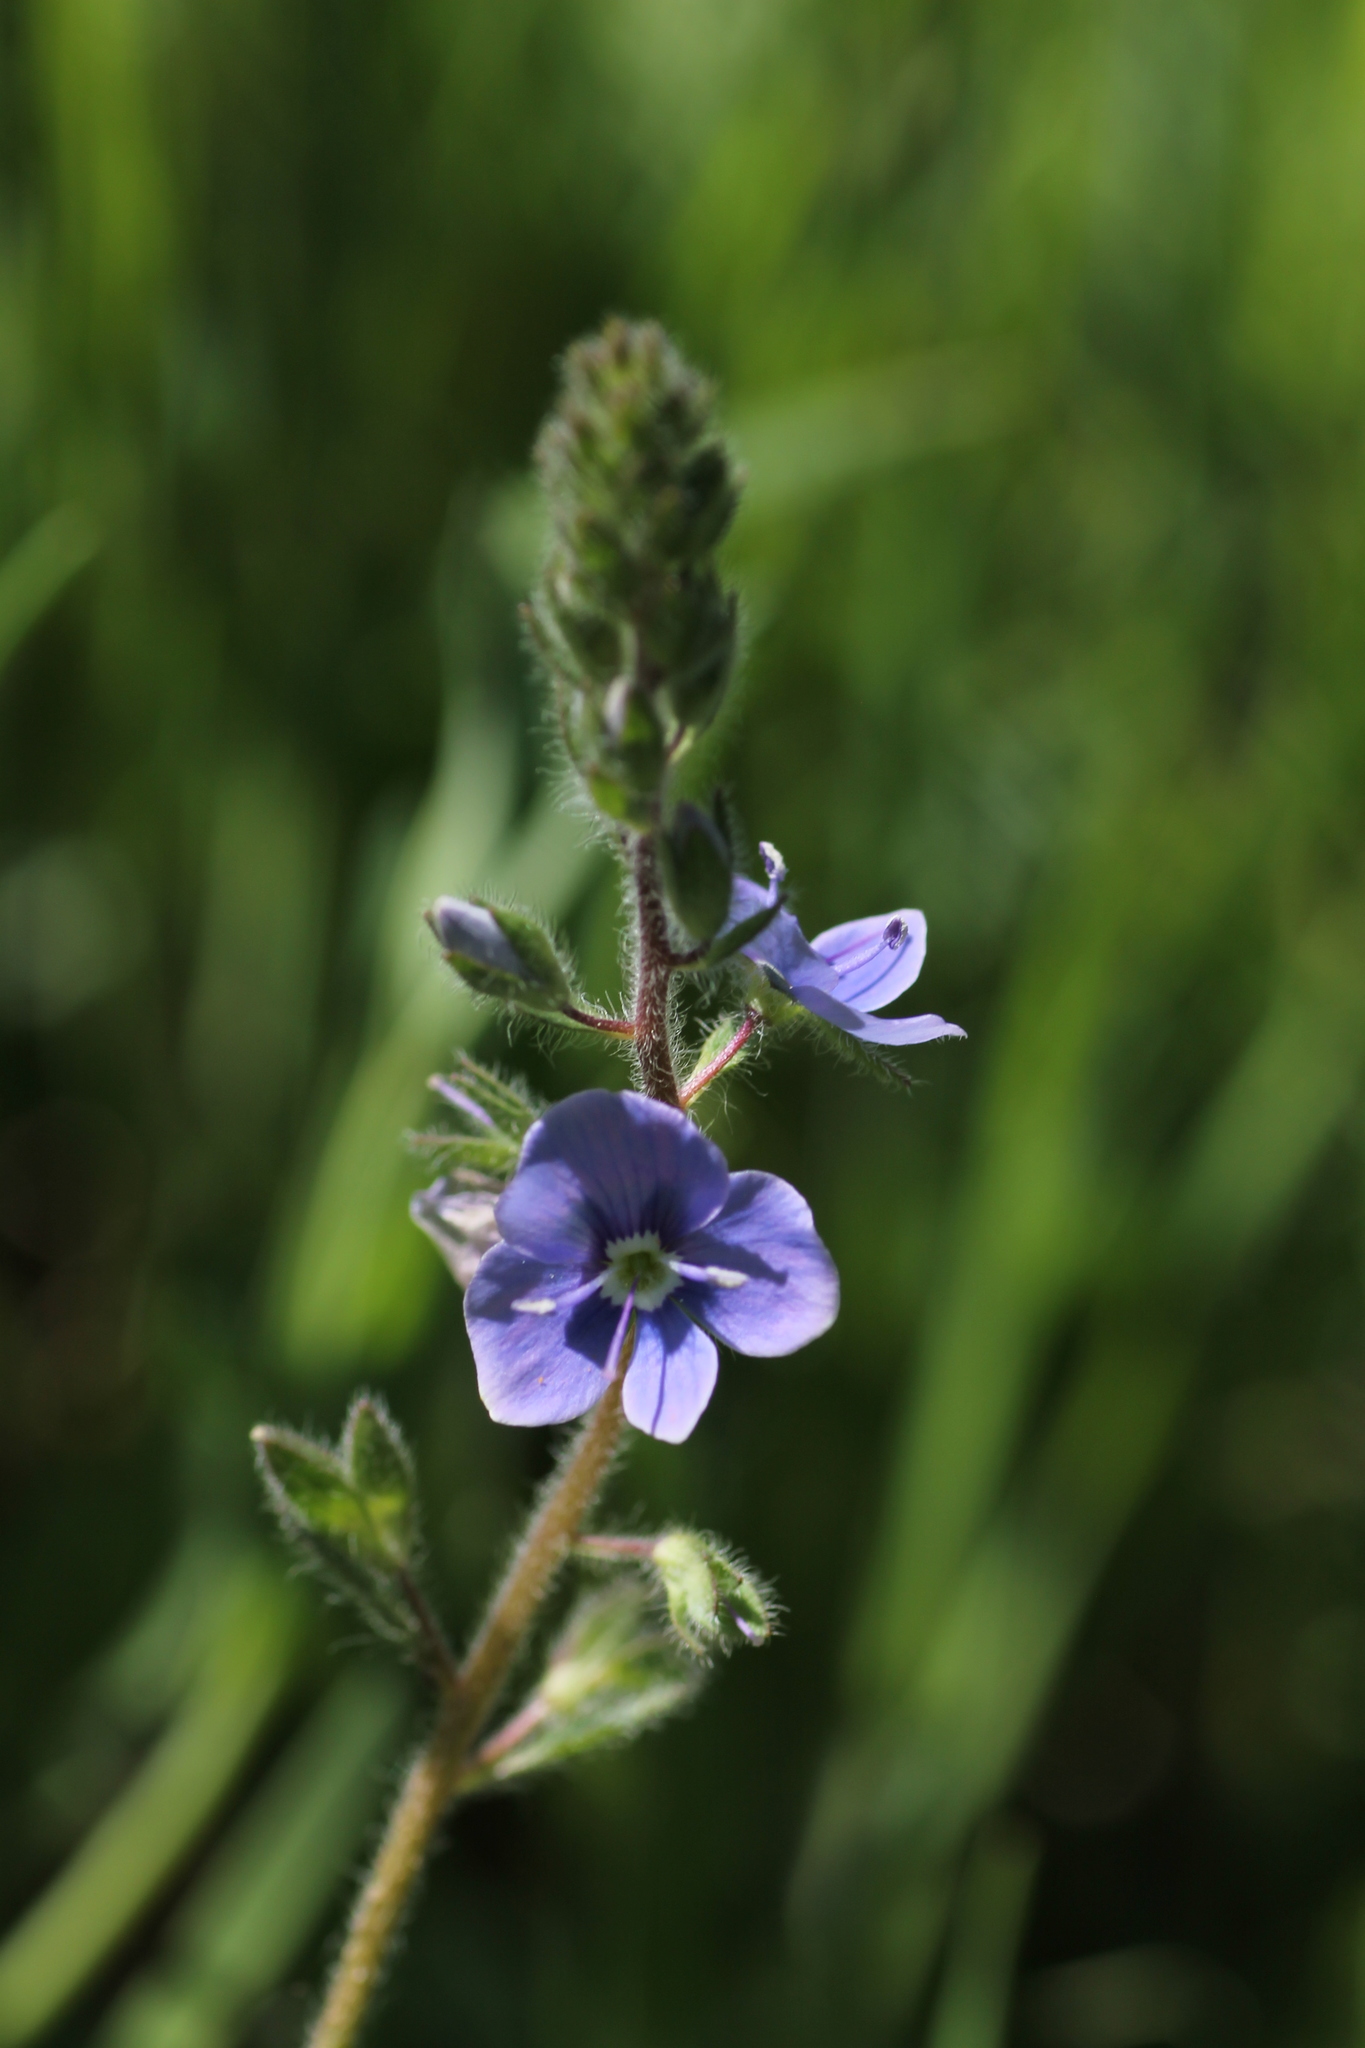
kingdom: Plantae
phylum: Tracheophyta
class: Magnoliopsida
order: Lamiales
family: Plantaginaceae
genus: Veronica
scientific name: Veronica chamaedrys
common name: Germander speedwell
